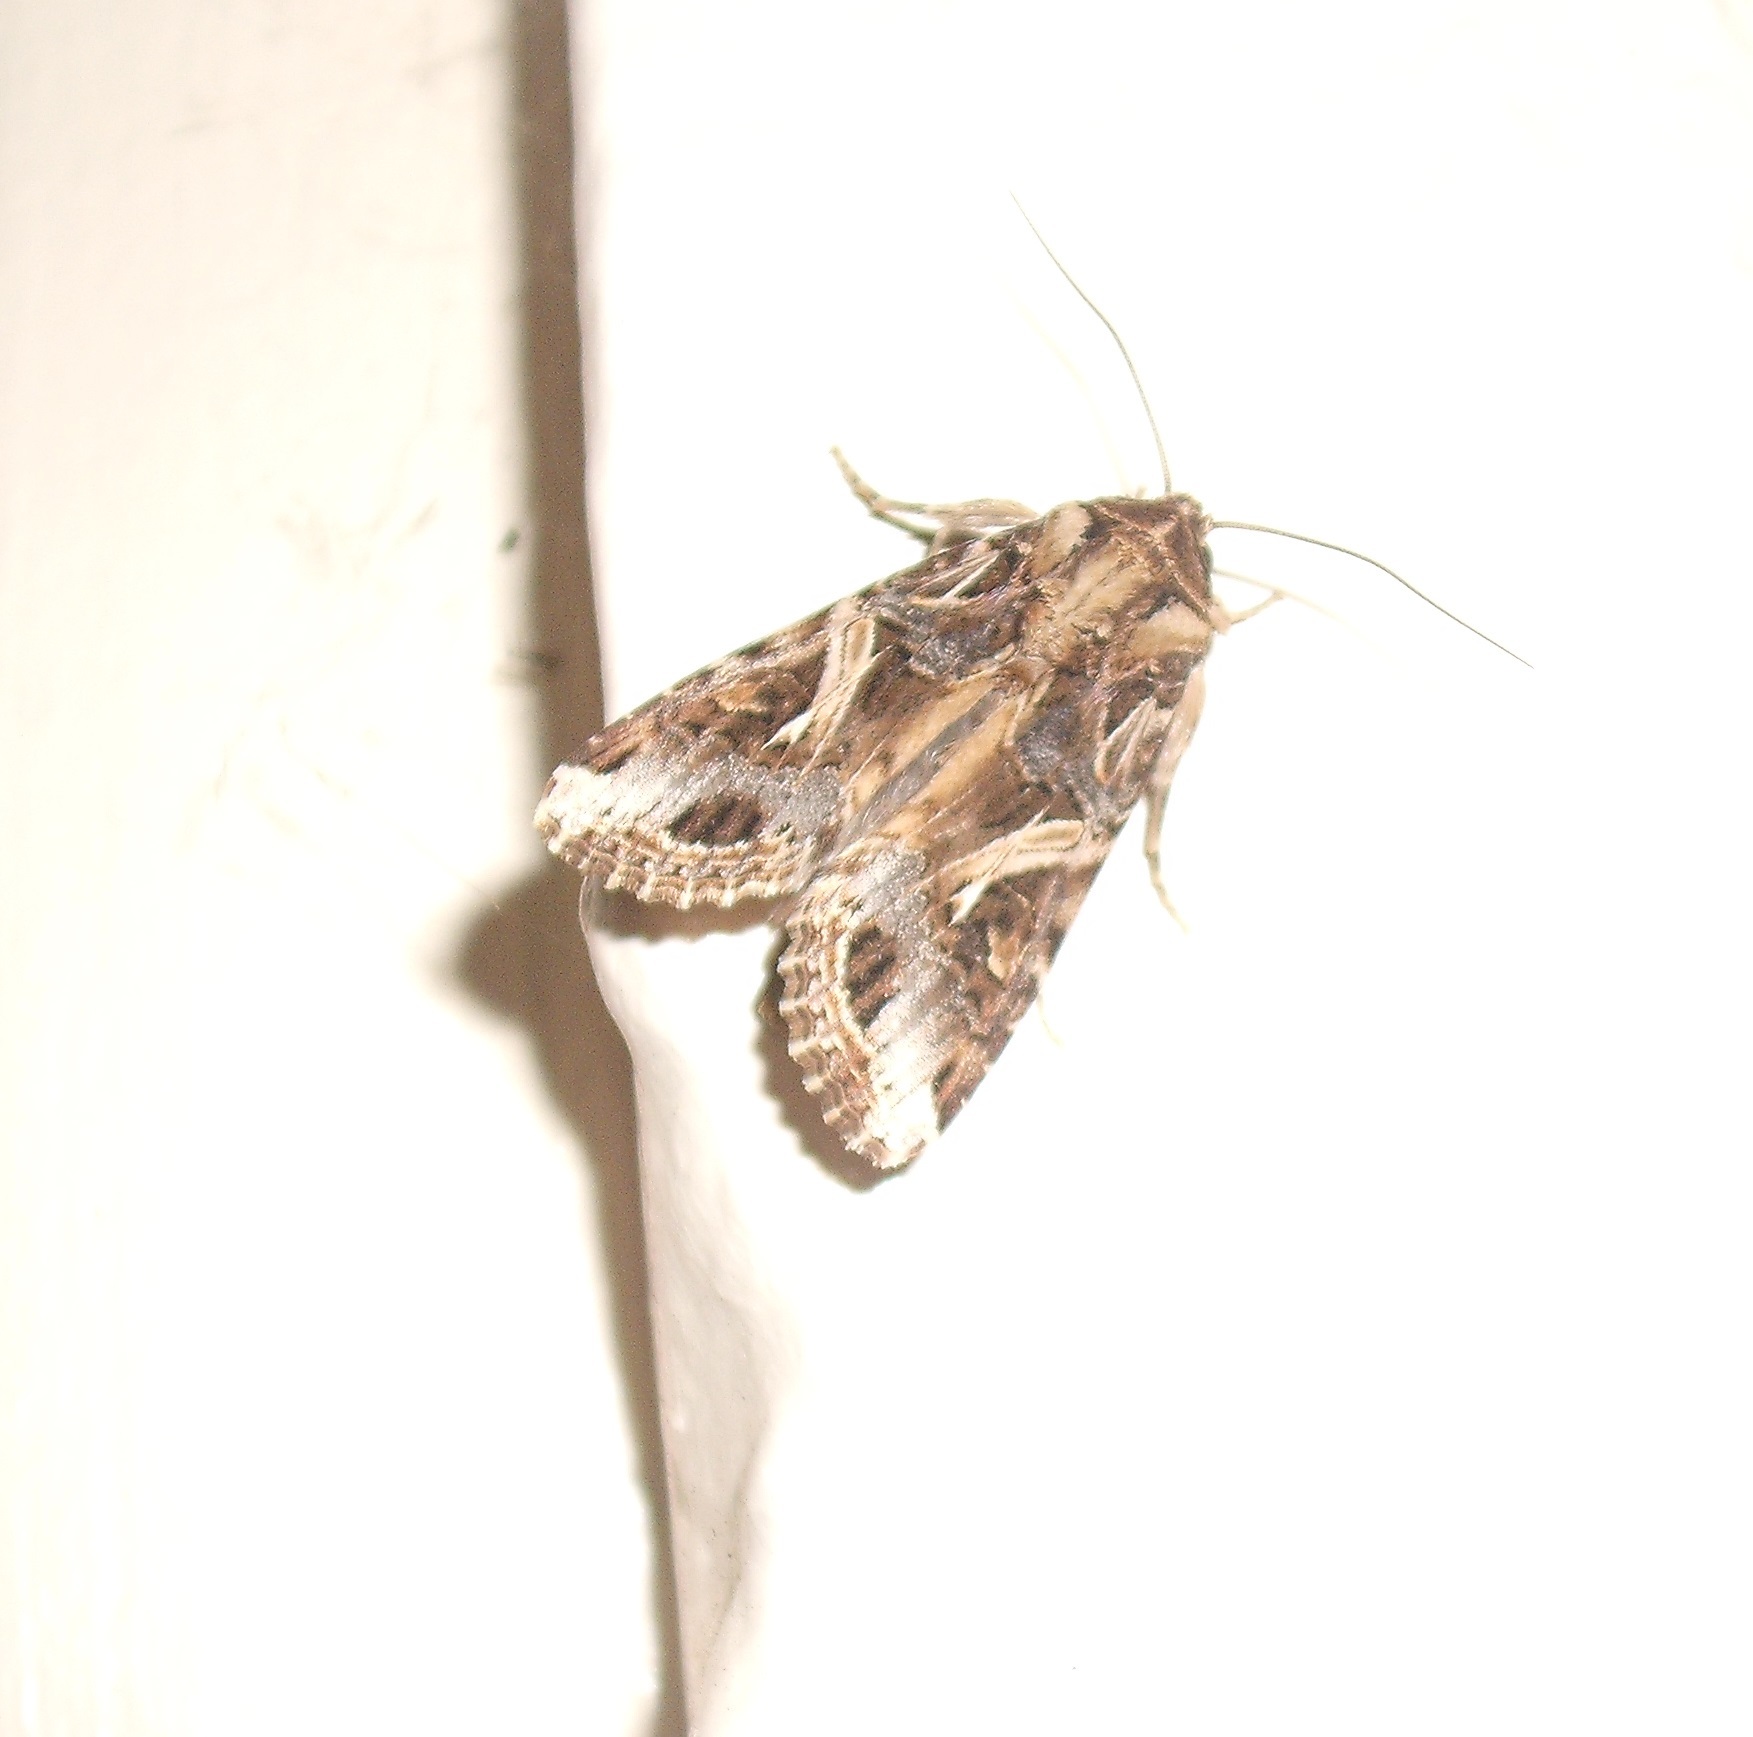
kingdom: Animalia
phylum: Arthropoda
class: Insecta
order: Lepidoptera
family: Noctuidae
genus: Spodoptera
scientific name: Spodoptera litura
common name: Asian cotton leafworm
